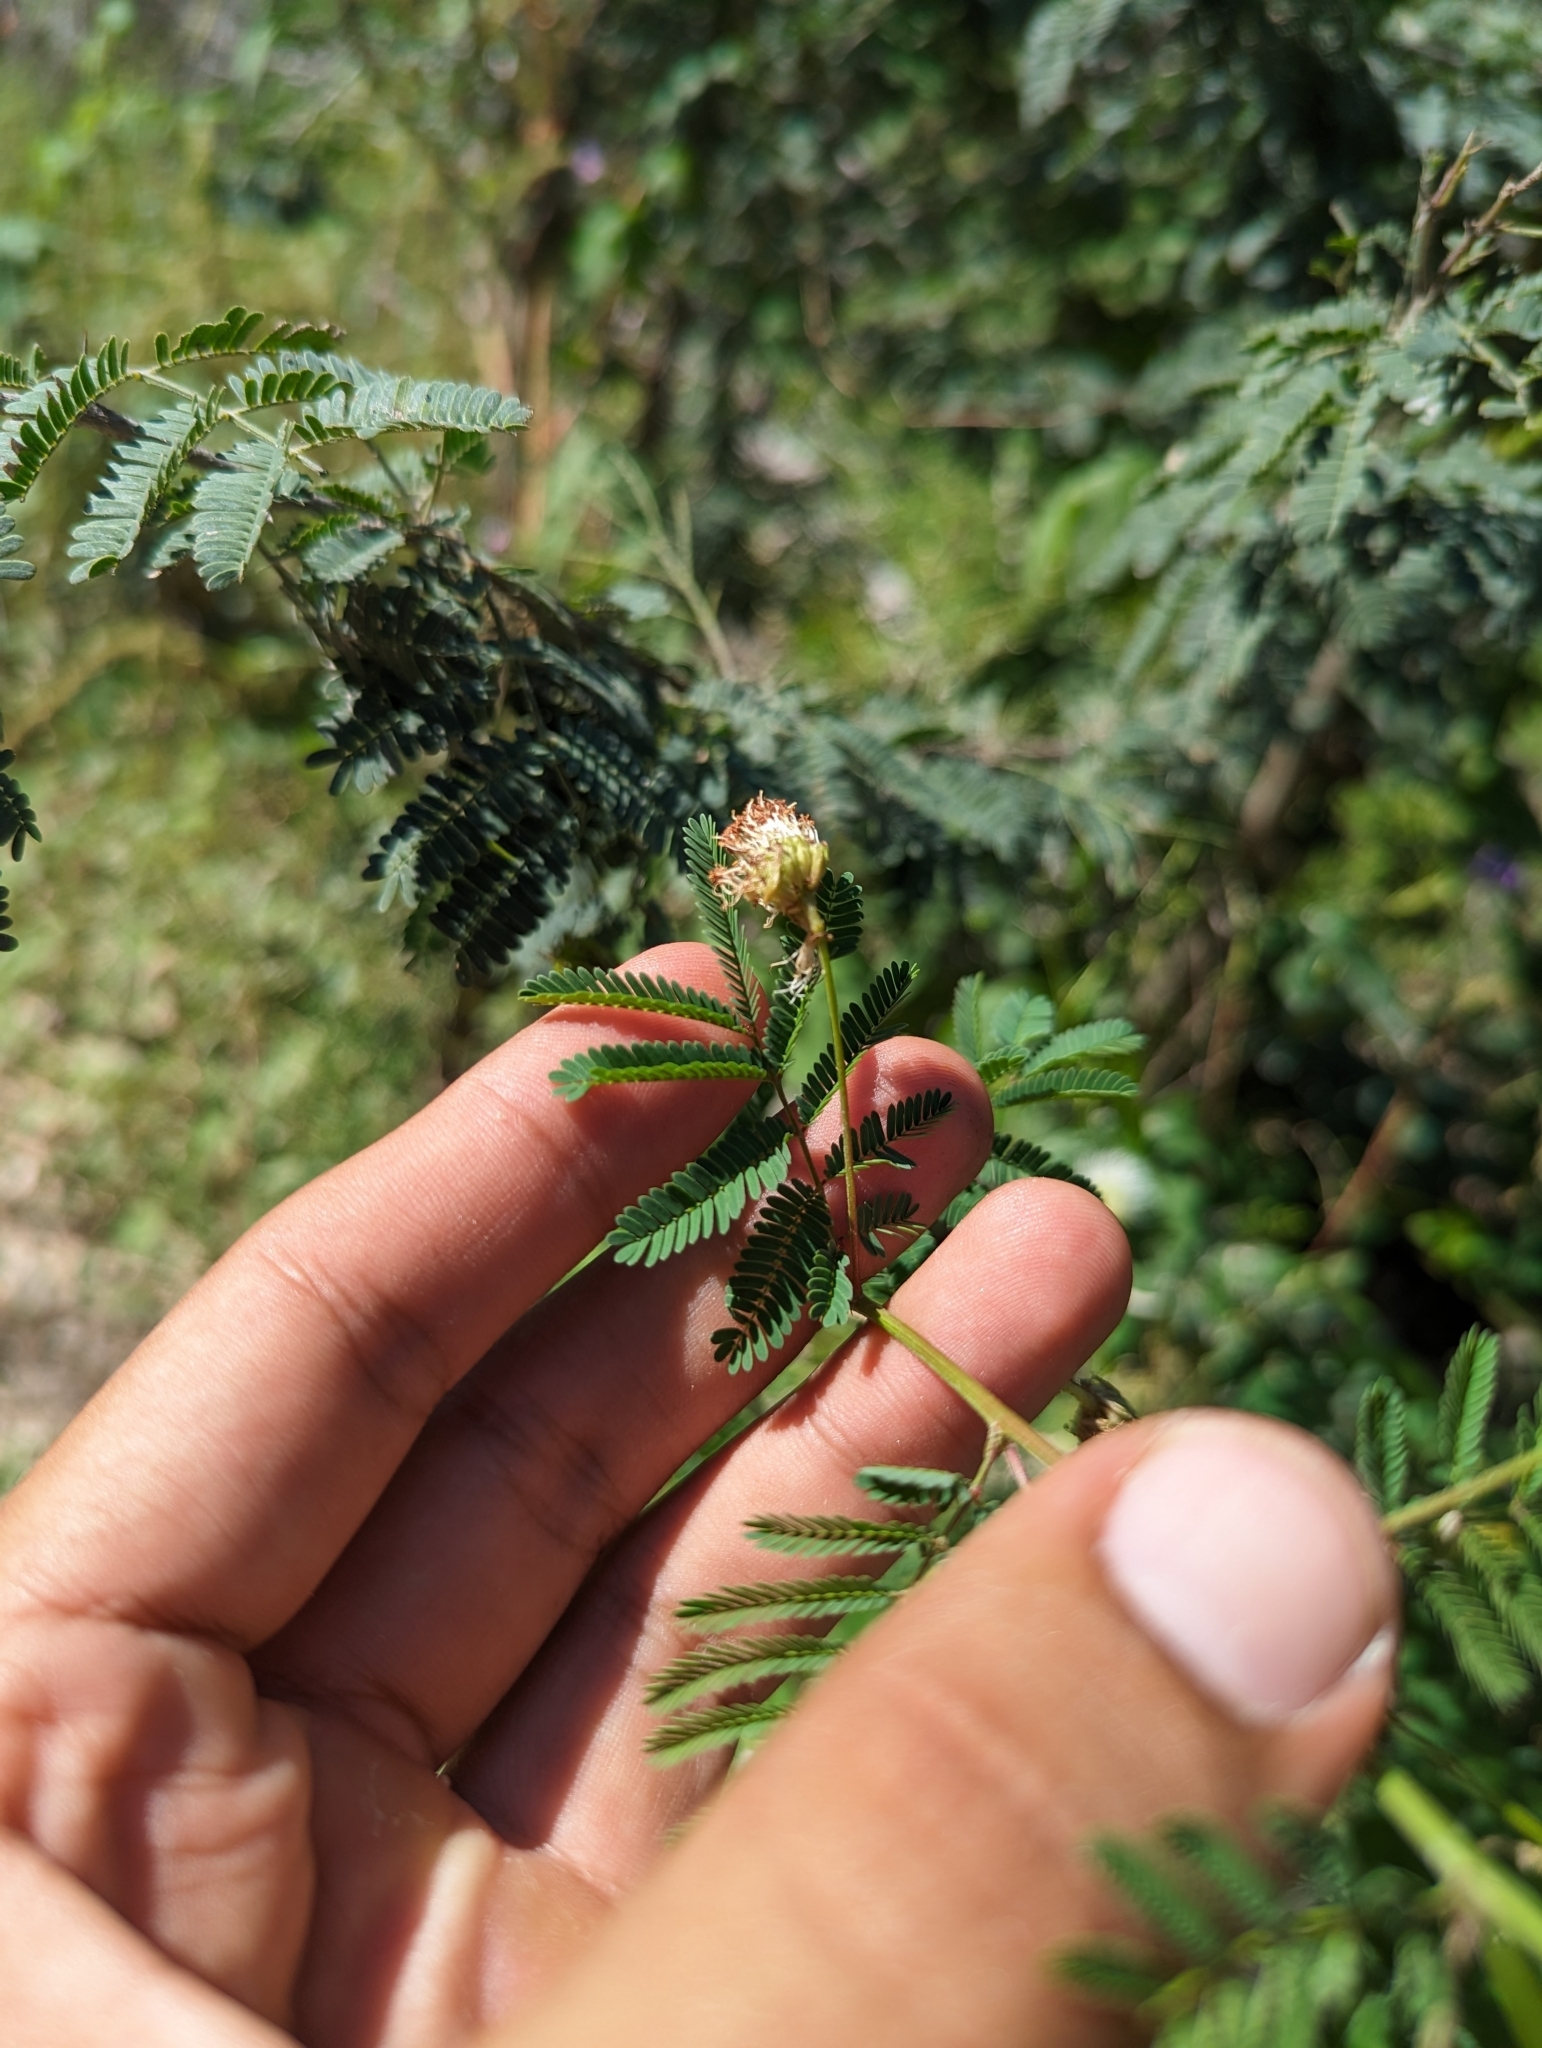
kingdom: Plantae
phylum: Tracheophyta
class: Magnoliopsida
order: Fabales
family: Fabaceae
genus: Desmanthus
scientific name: Desmanthus fruticosus
